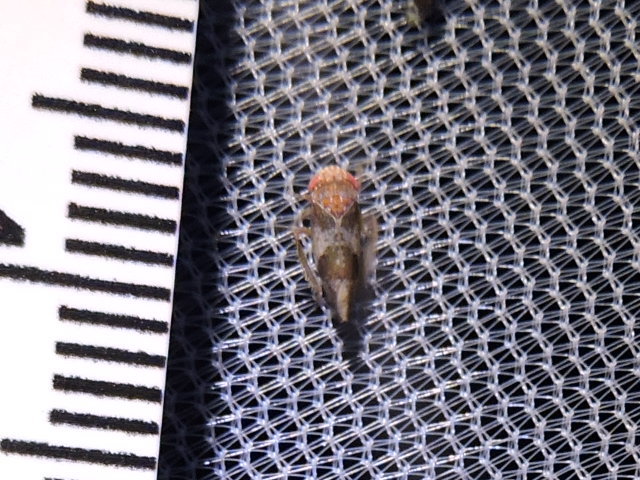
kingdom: Animalia
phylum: Arthropoda
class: Insecta
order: Hemiptera
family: Cicadellidae
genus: Norvellina
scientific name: Norvellina helenae
